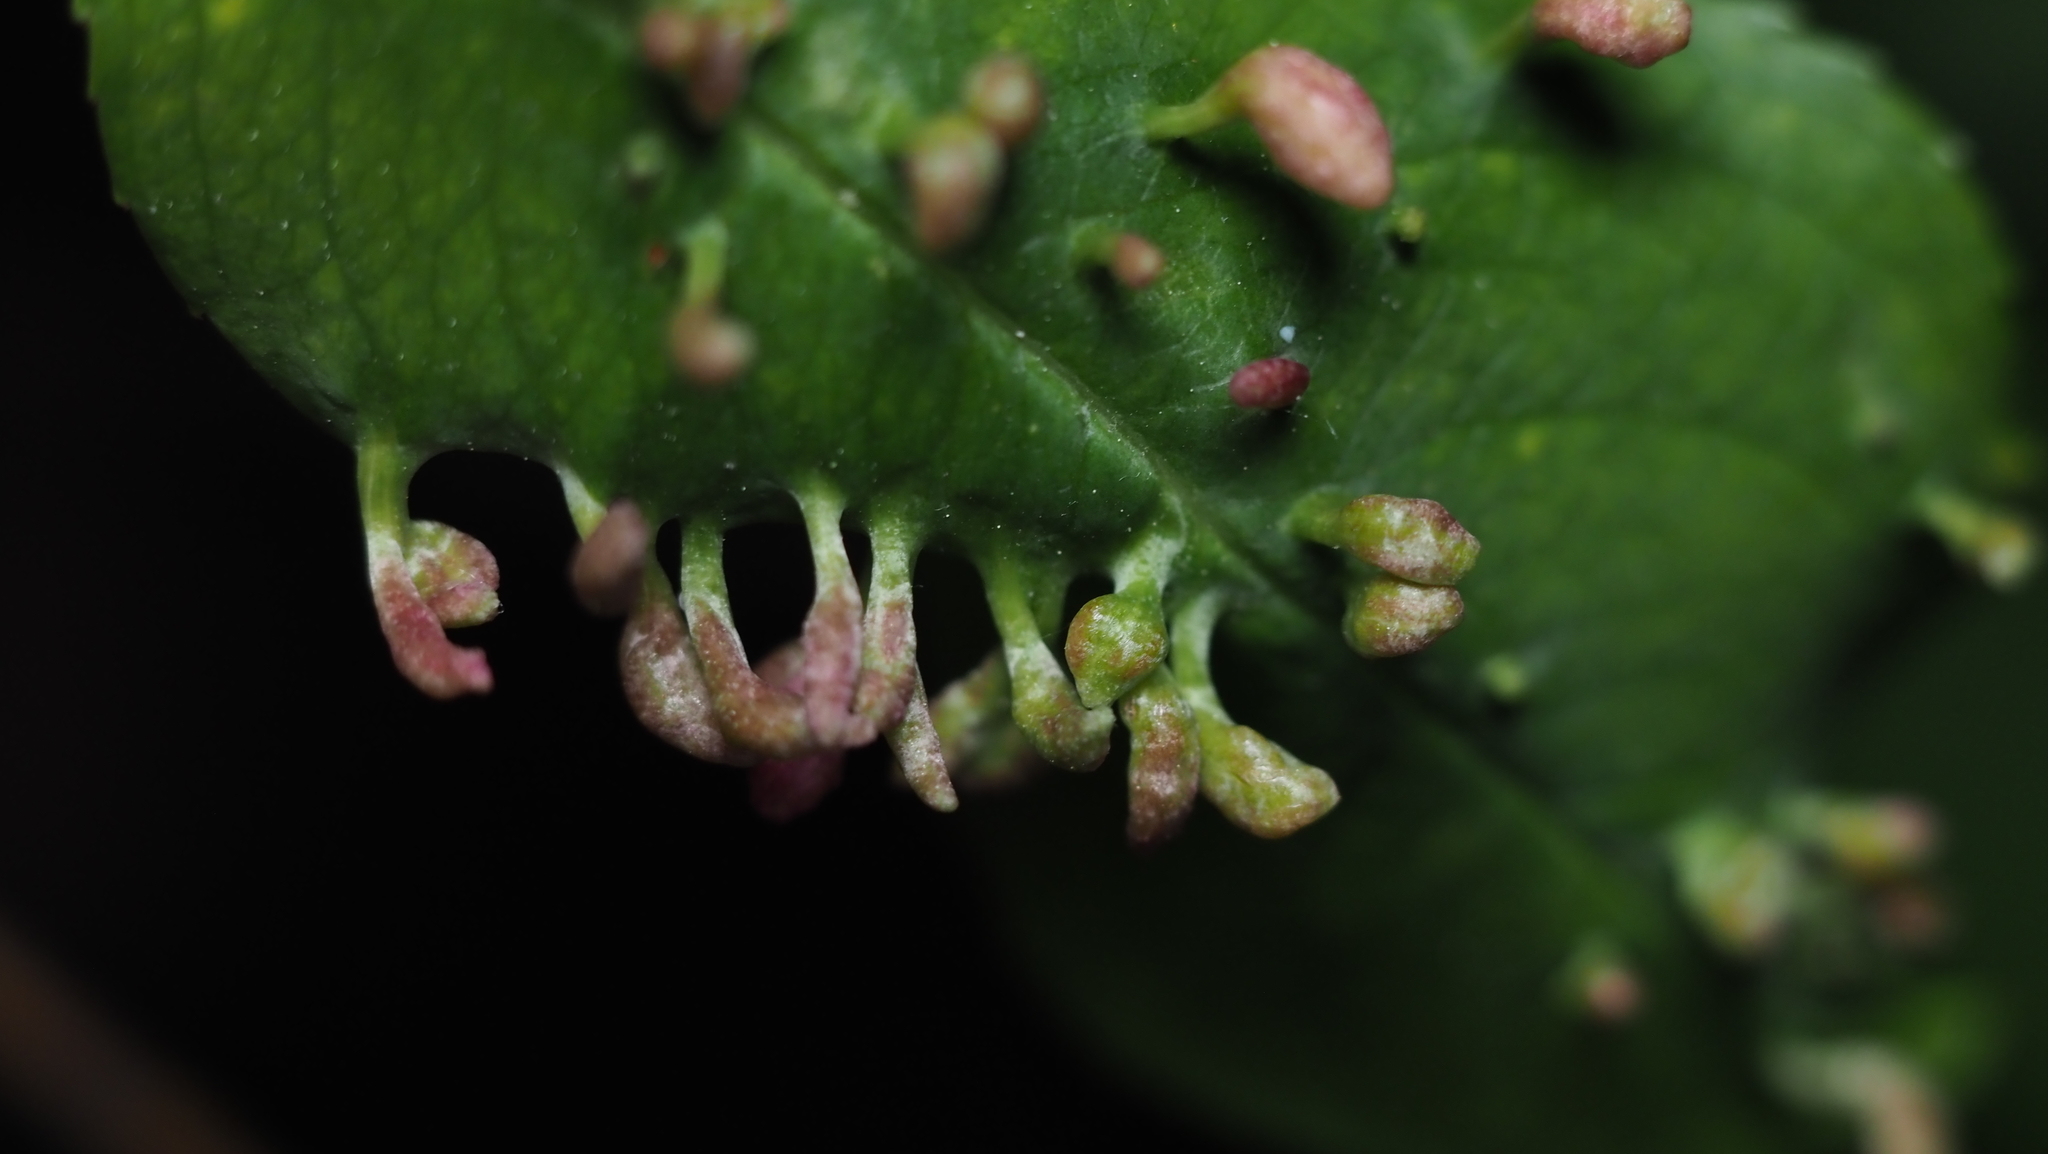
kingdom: Animalia
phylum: Arthropoda
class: Arachnida
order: Trombidiformes
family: Eriophyidae
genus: Eriophyes
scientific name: Eriophyes
